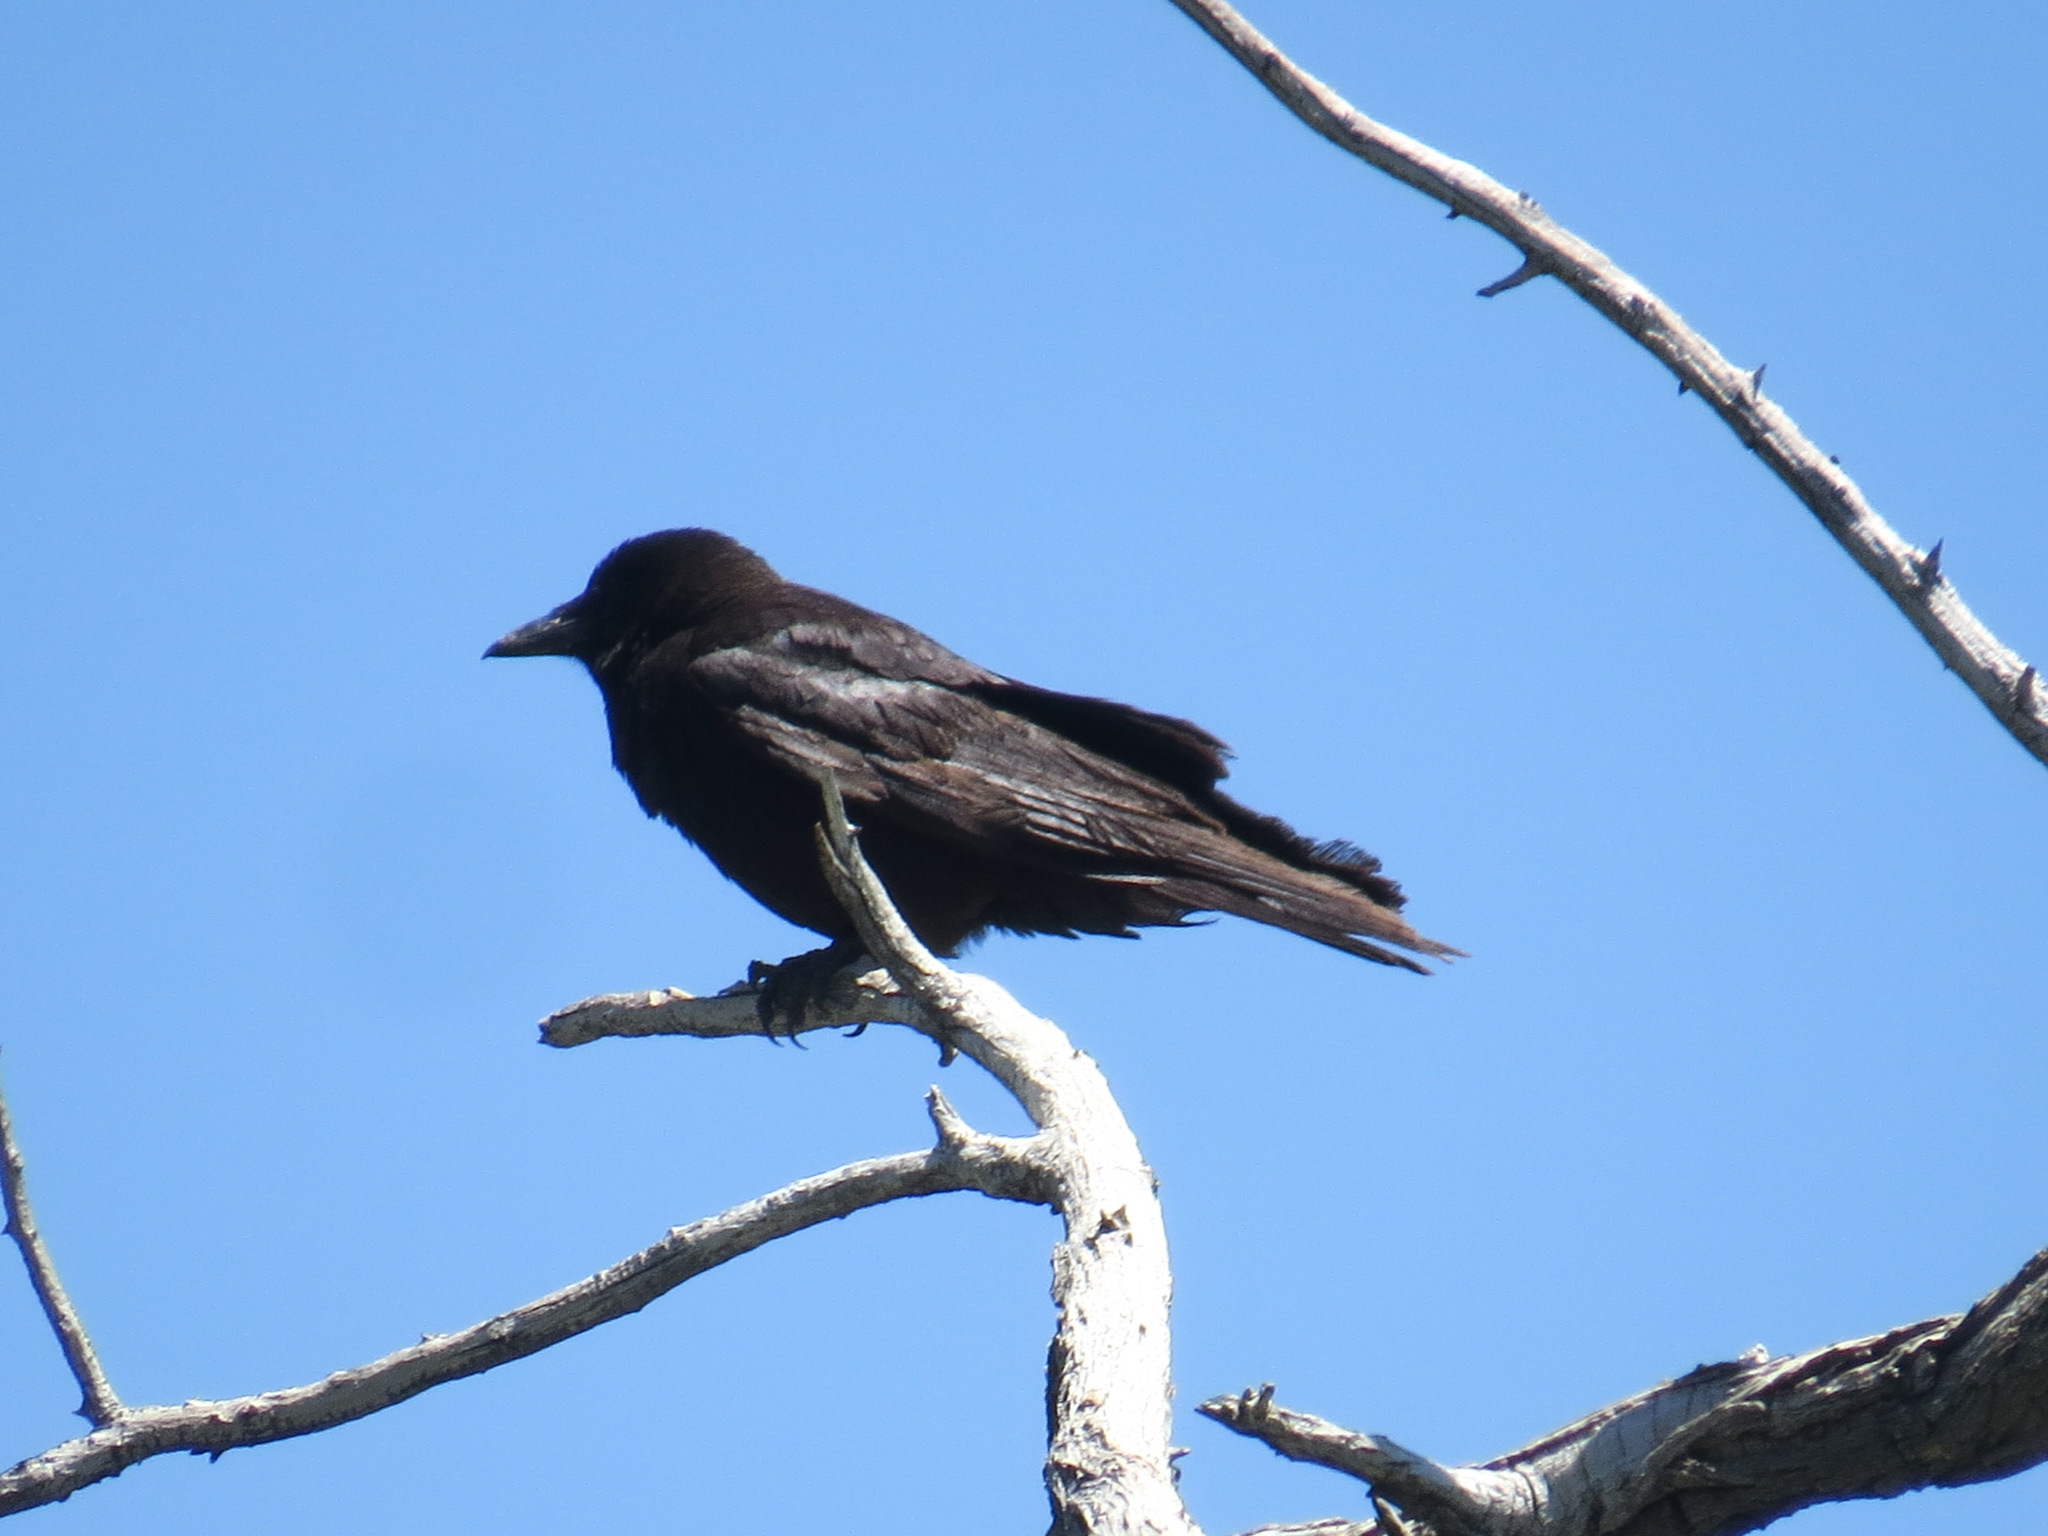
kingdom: Animalia
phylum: Chordata
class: Aves
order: Passeriformes
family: Corvidae
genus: Corvus
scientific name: Corvus brachyrhynchos
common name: American crow
